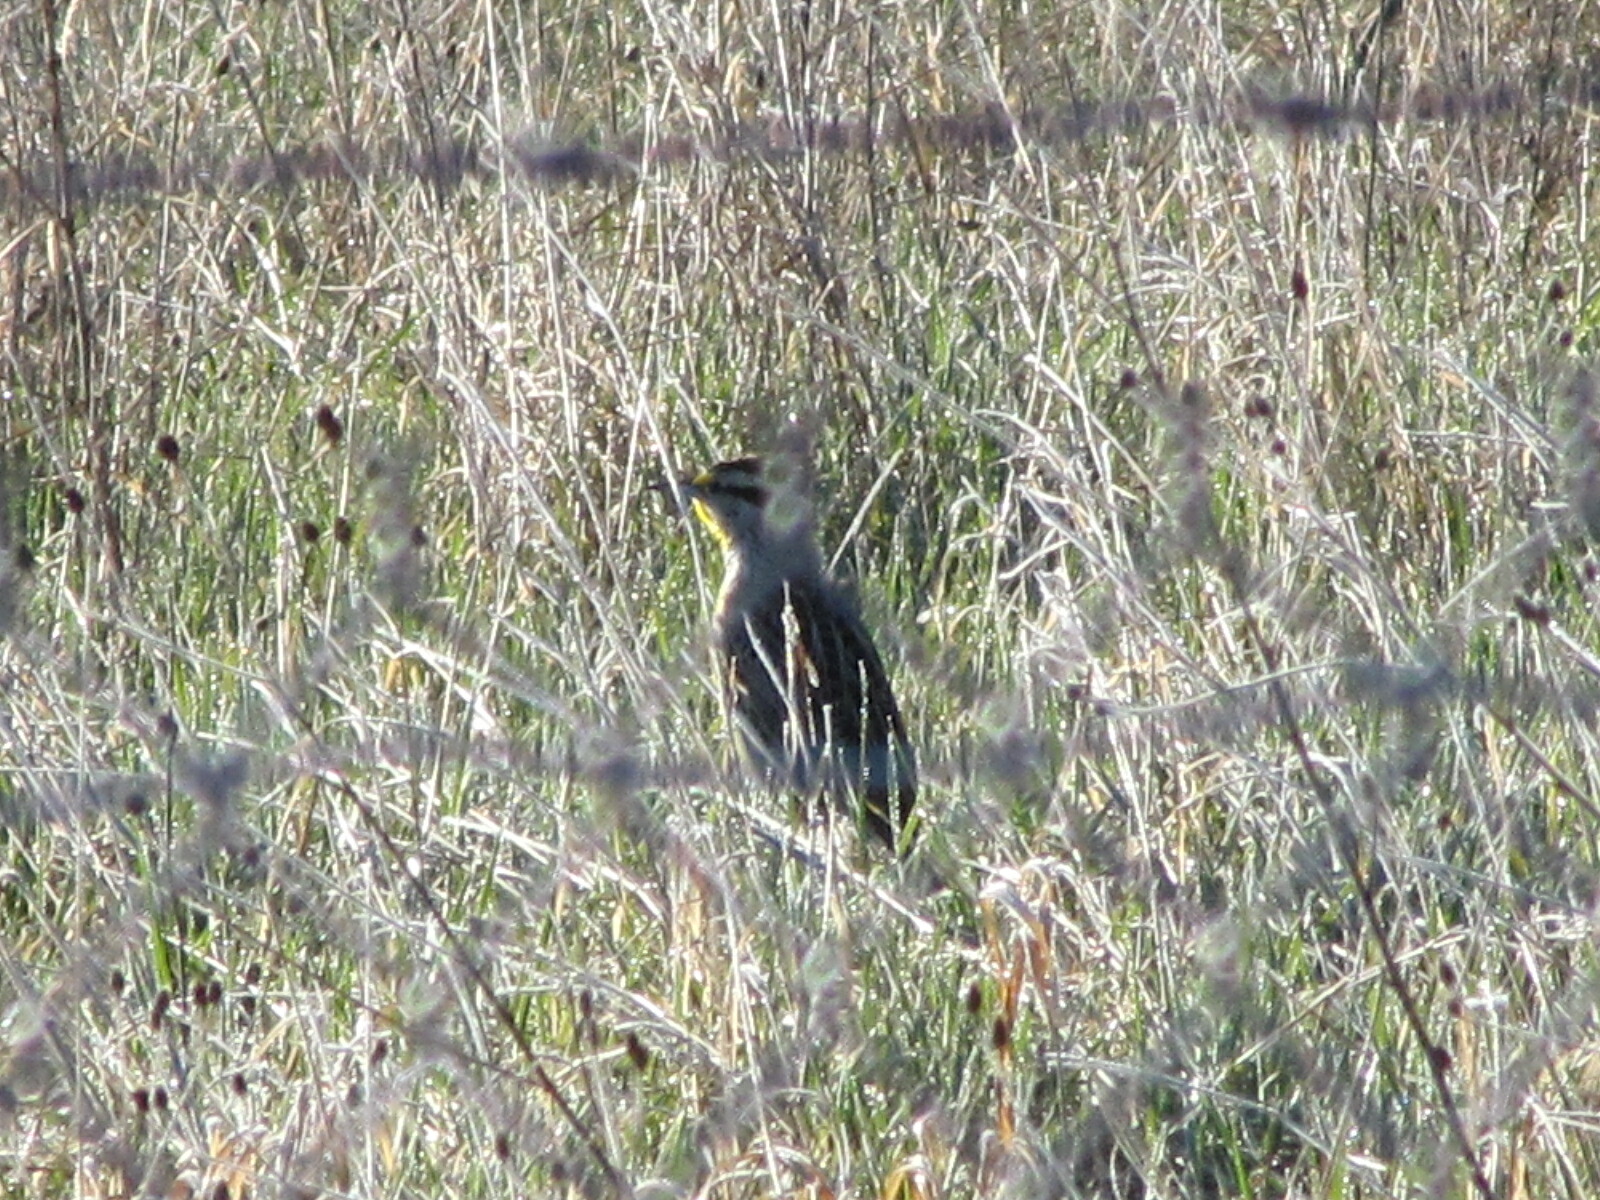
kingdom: Animalia
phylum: Chordata
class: Aves
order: Passeriformes
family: Icteridae
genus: Sturnella
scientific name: Sturnella magna
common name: Eastern meadowlark
